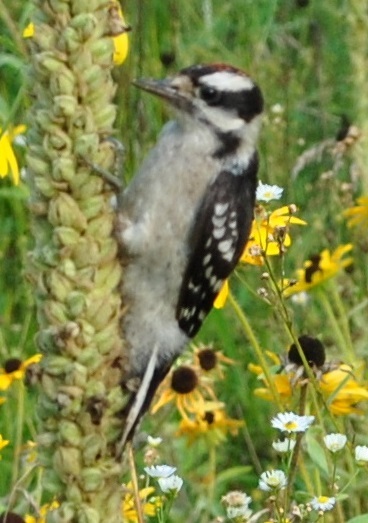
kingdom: Animalia
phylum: Chordata
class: Aves
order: Piciformes
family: Picidae
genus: Dryobates
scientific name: Dryobates pubescens
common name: Downy woodpecker
